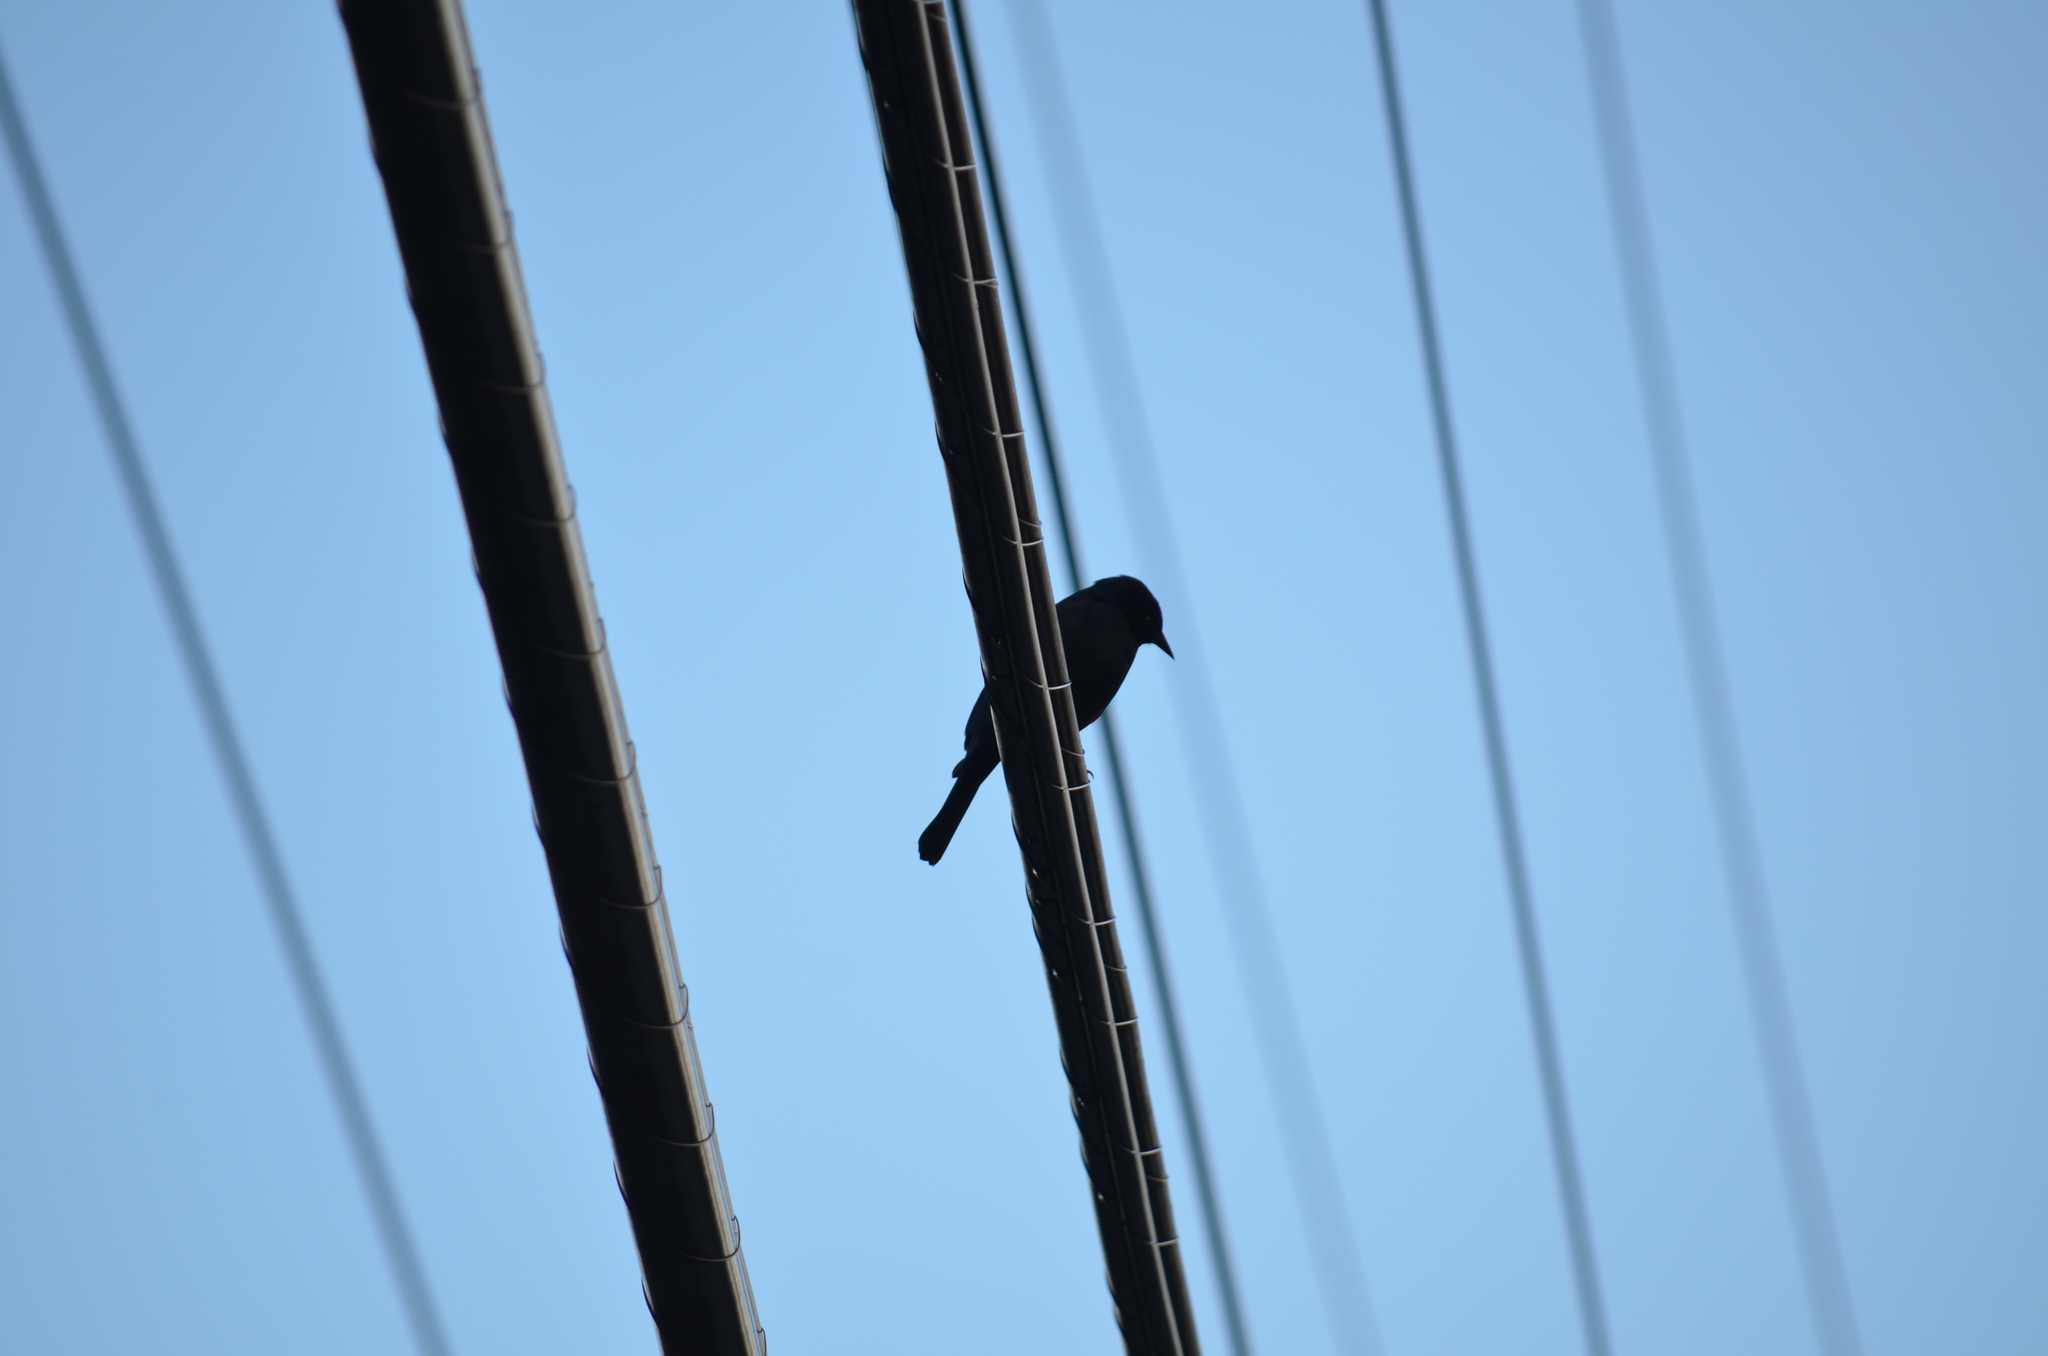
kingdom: Animalia
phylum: Chordata
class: Aves
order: Passeriformes
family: Icteridae
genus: Euphagus
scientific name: Euphagus cyanocephalus
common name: Brewer's blackbird
